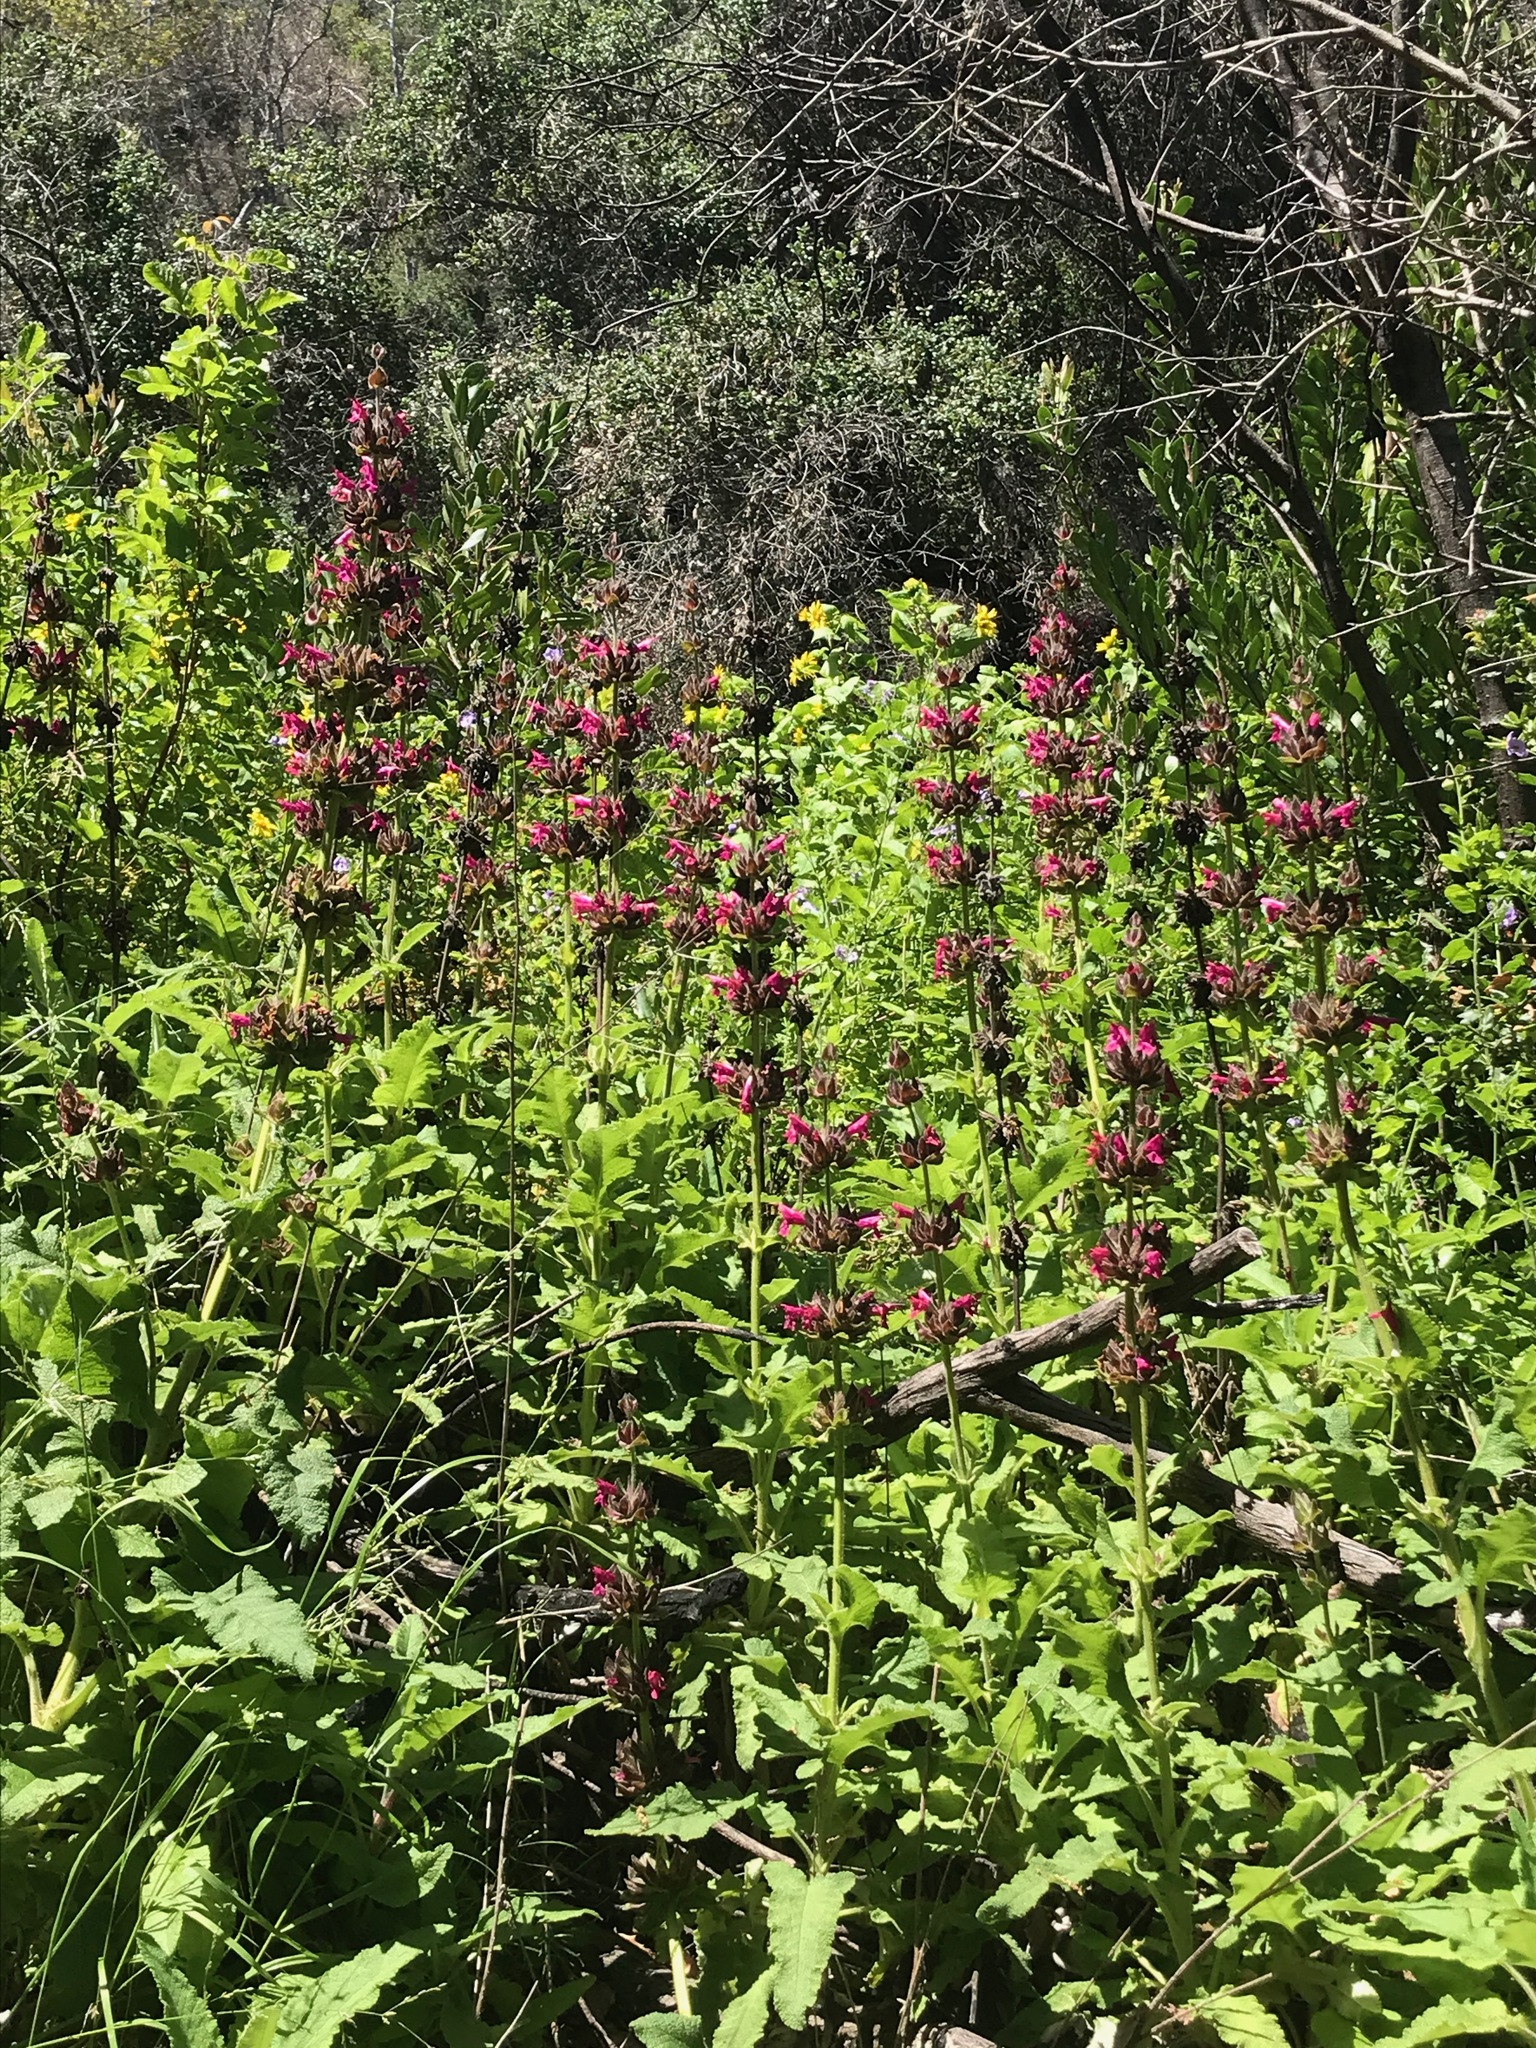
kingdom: Plantae
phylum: Tracheophyta
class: Magnoliopsida
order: Lamiales
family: Lamiaceae
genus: Salvia
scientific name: Salvia spathacea
